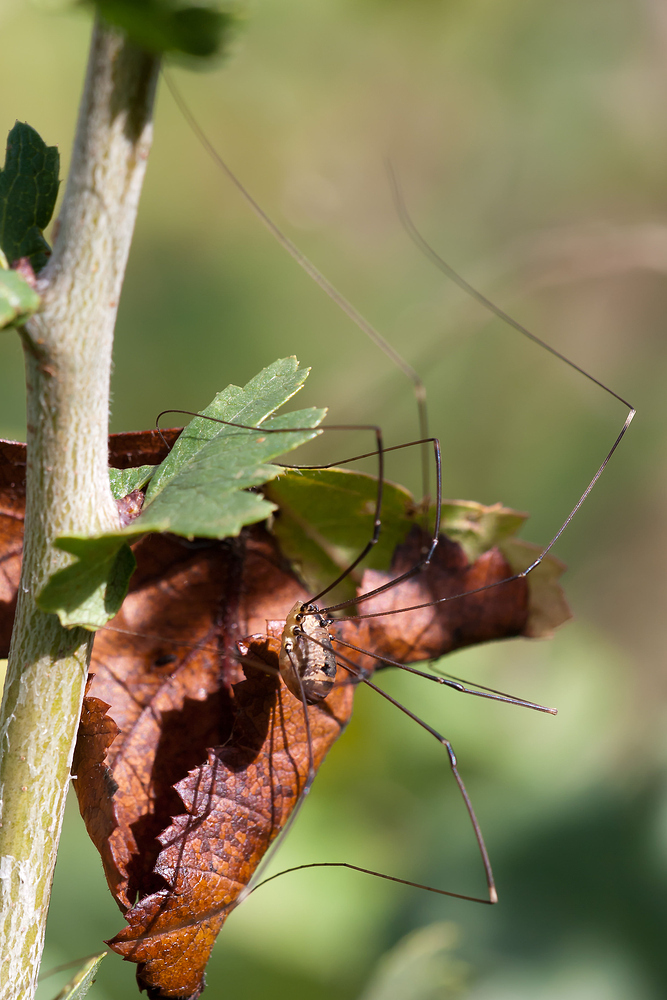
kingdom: Animalia
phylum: Arthropoda
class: Arachnida
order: Opiliones
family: Sclerosomatidae
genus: Leiobunum
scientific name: Leiobunum rotundum
